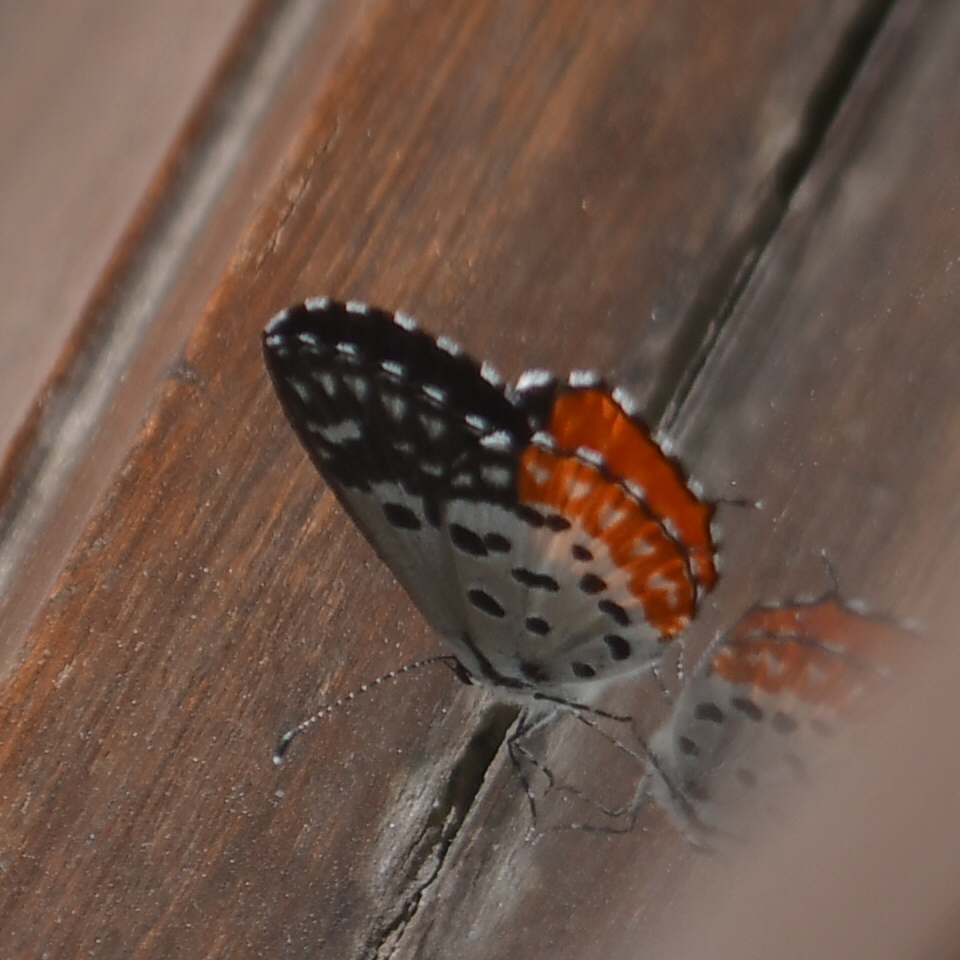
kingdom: Animalia
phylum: Arthropoda
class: Insecta
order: Lepidoptera
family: Lycaenidae
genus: Talicada
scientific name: Talicada nyseus
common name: Red pierrot
